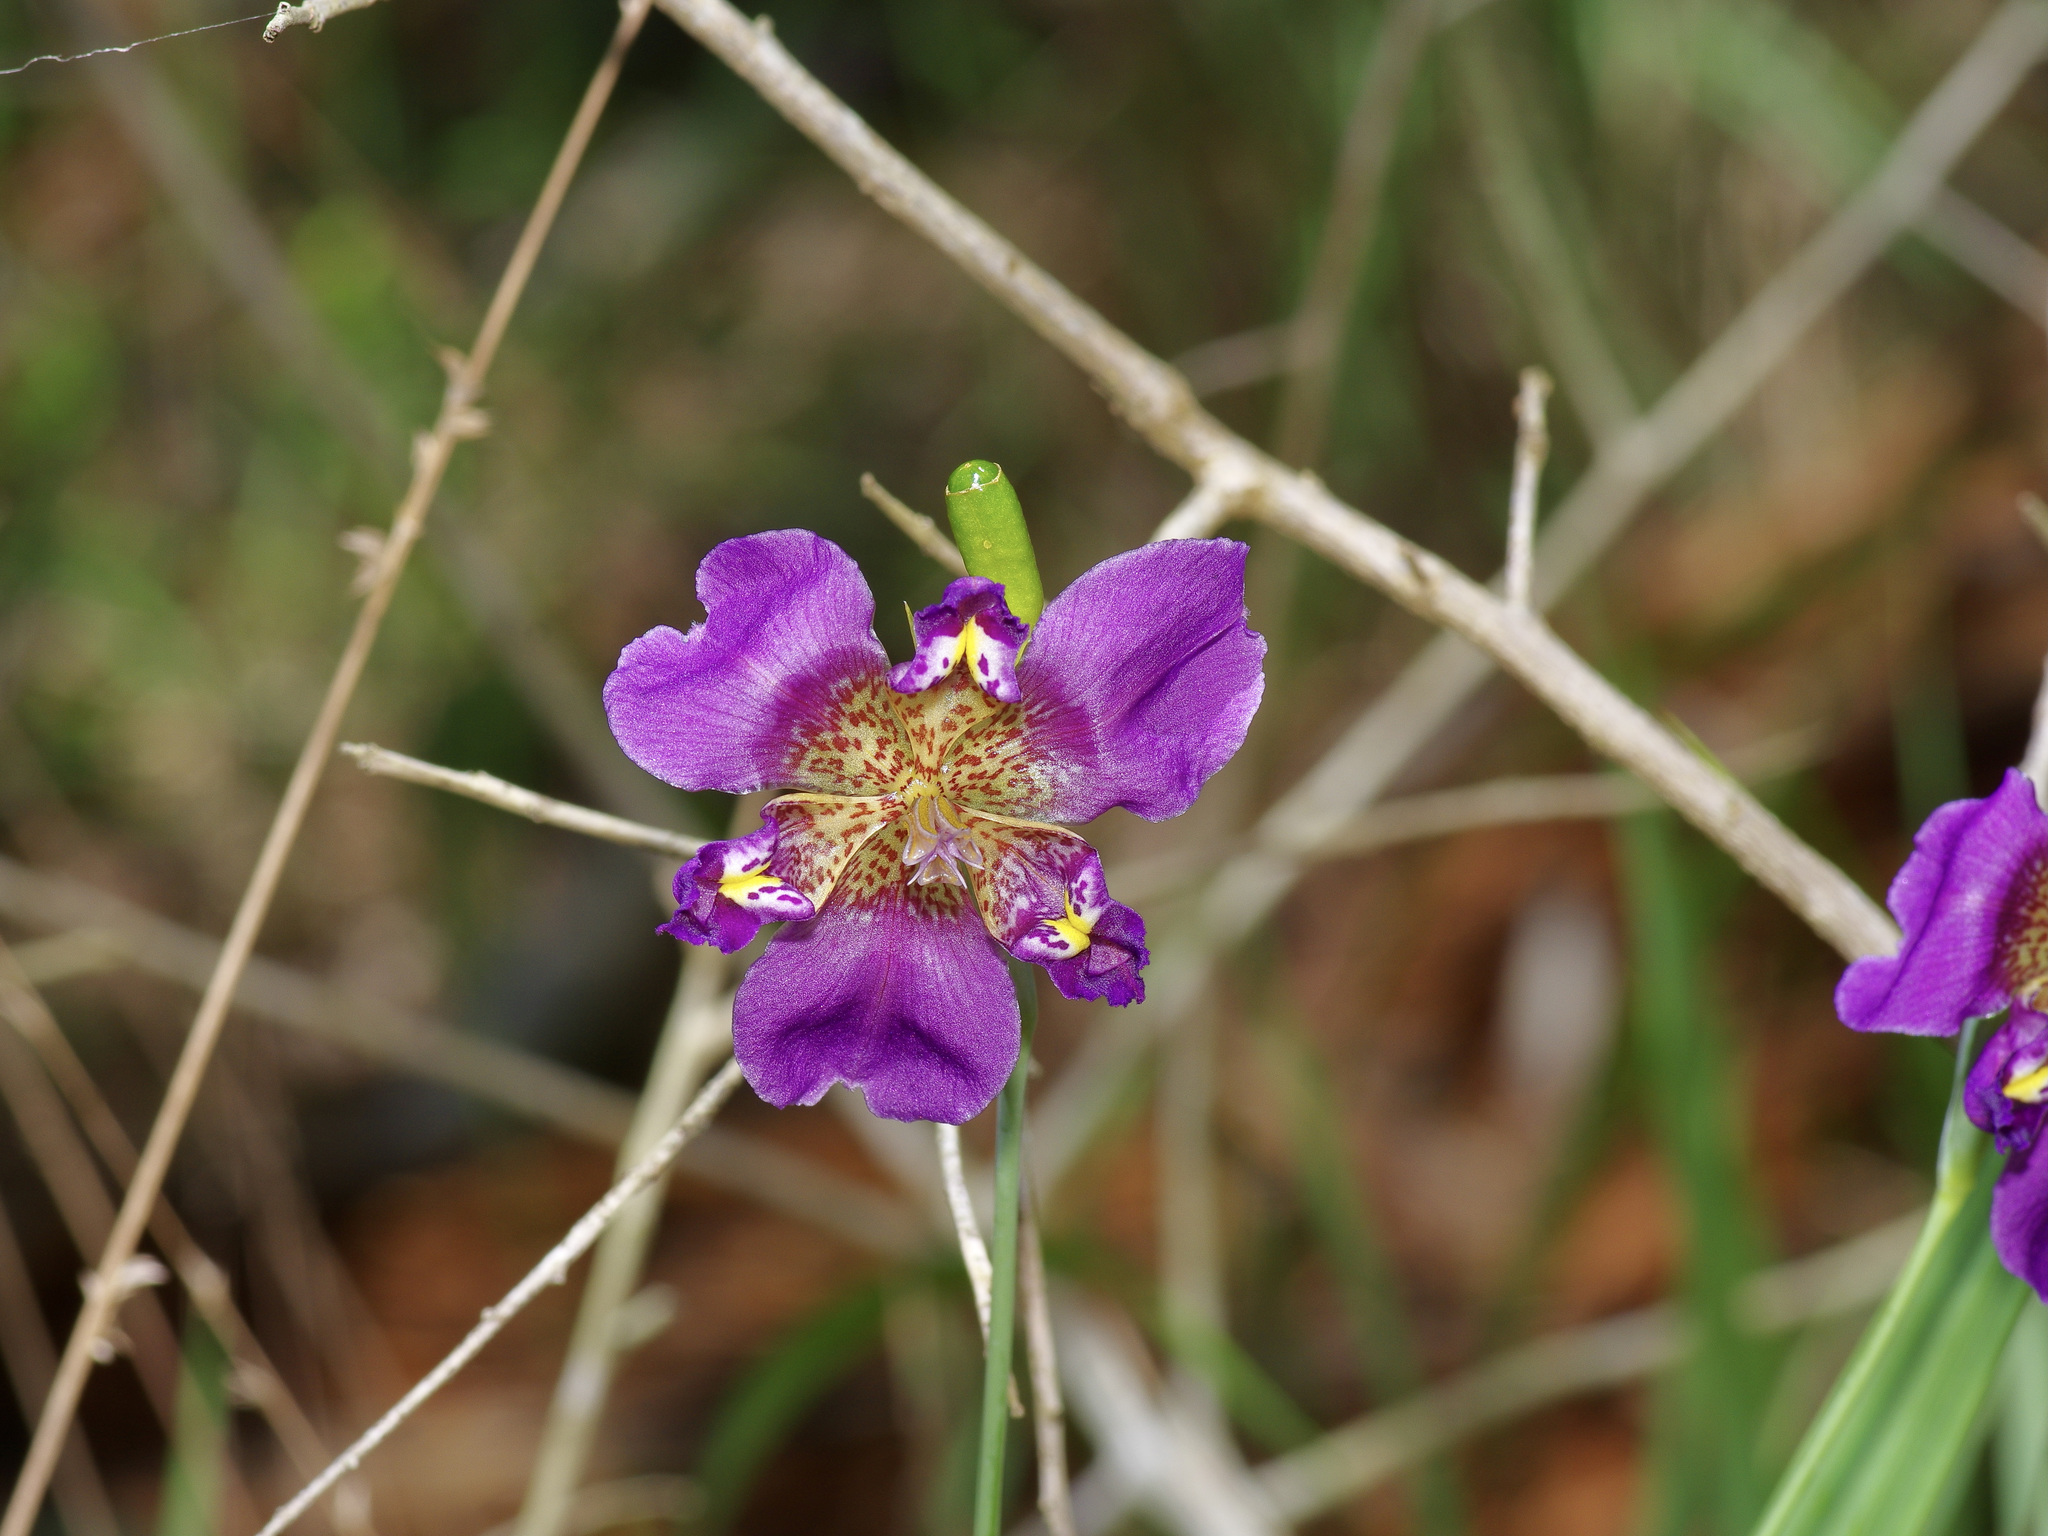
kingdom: Plantae
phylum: Tracheophyta
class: Liliopsida
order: Asparagales
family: Iridaceae
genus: Alophia
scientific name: Alophia drummondii
